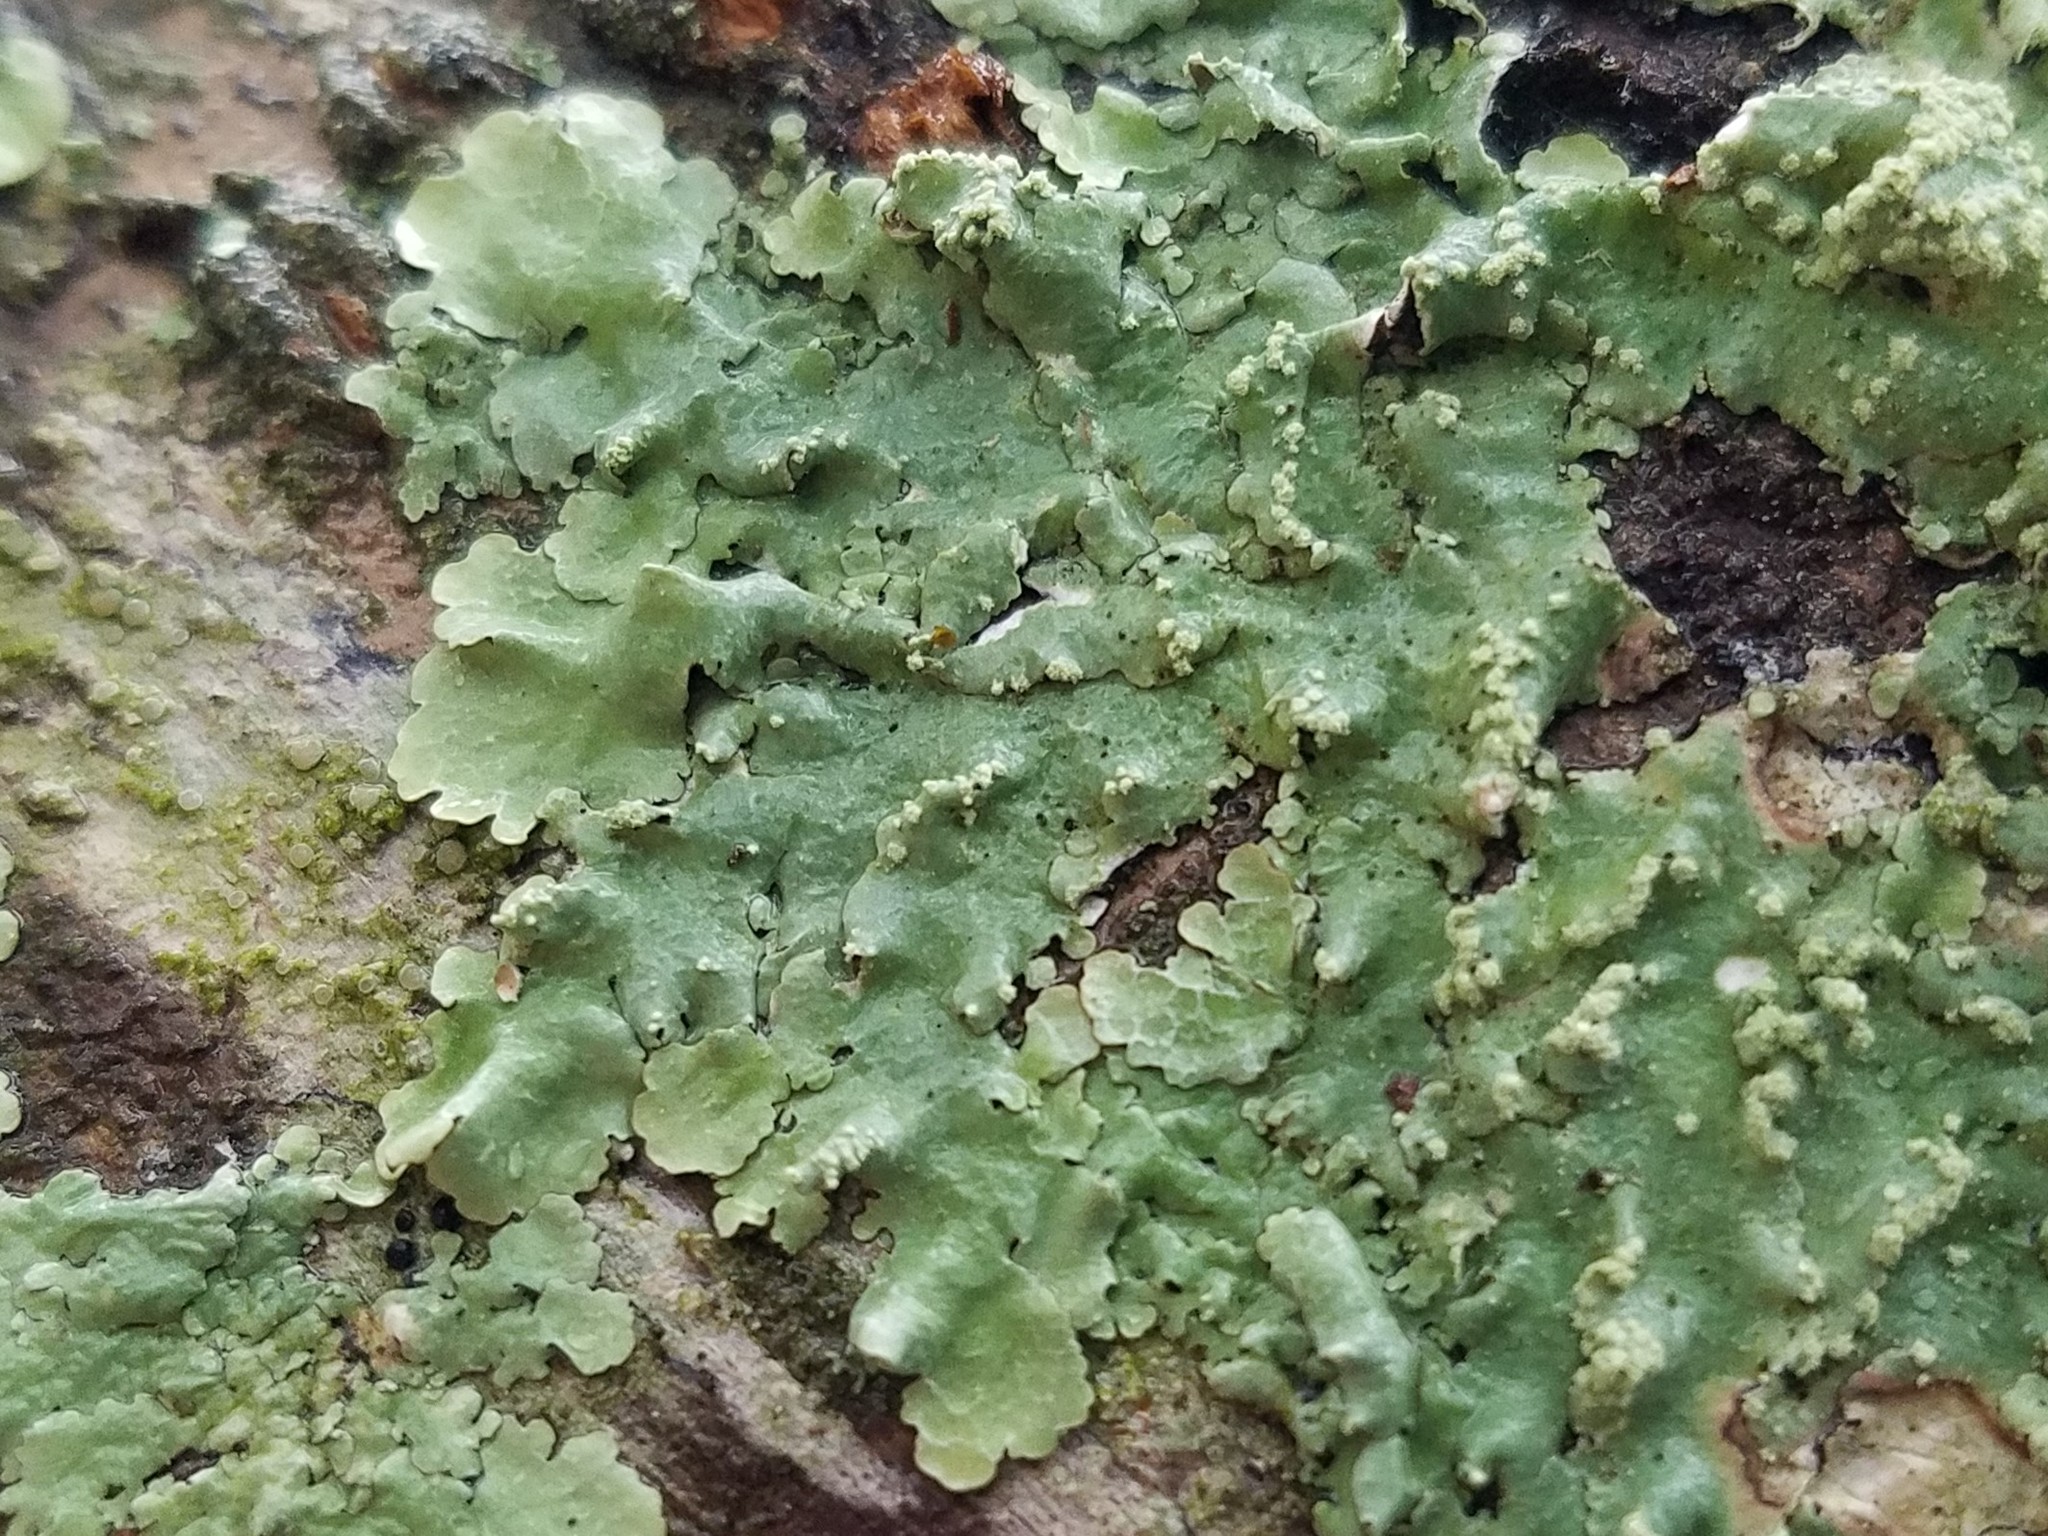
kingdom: Fungi
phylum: Ascomycota
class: Lecanoromycetes
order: Lecanorales
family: Parmeliaceae
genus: Crespoa
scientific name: Crespoa crozalsiana
